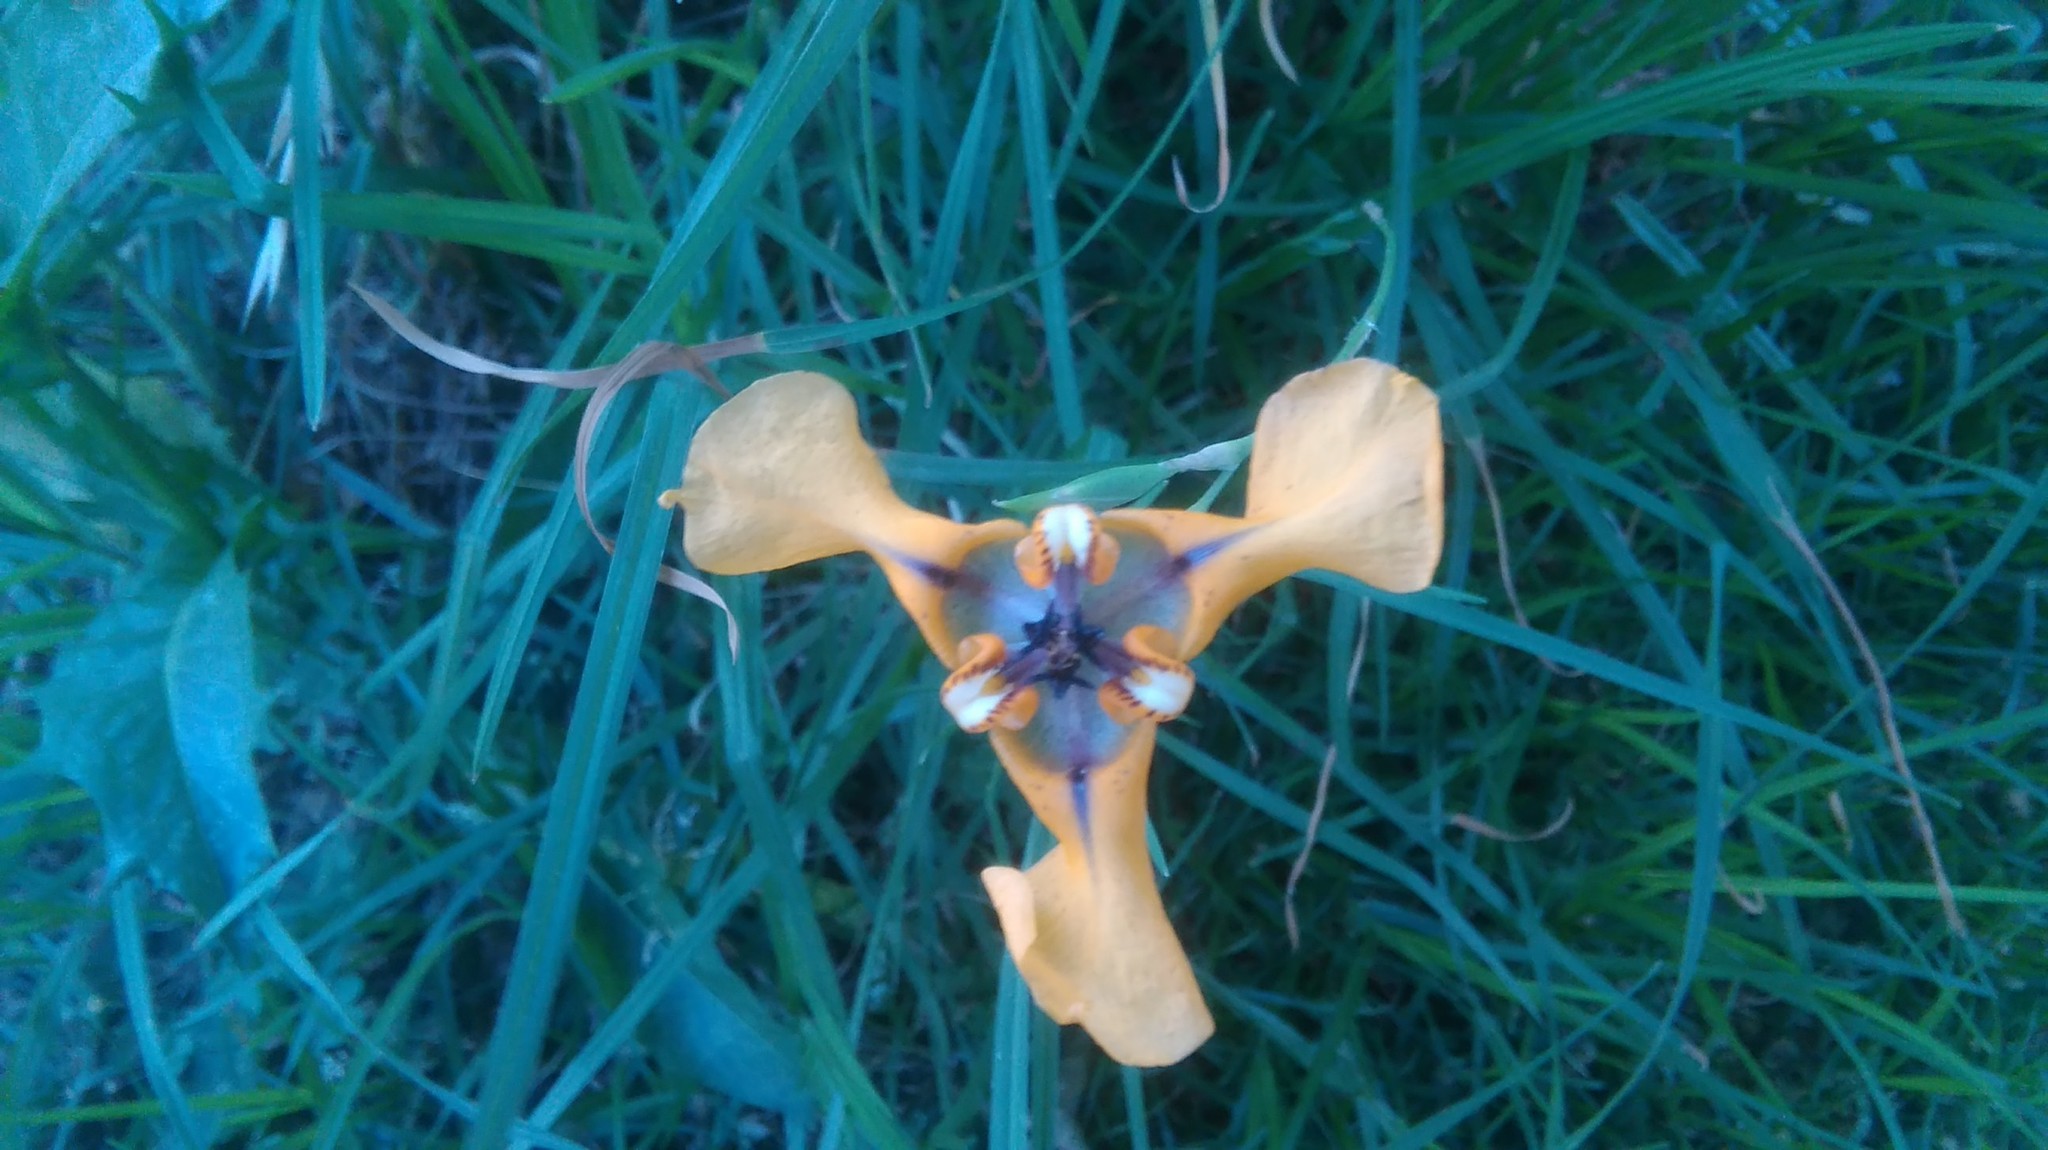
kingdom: Plantae
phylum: Tracheophyta
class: Liliopsida
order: Asparagales
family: Iridaceae
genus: Cypella
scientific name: Cypella herbertii
